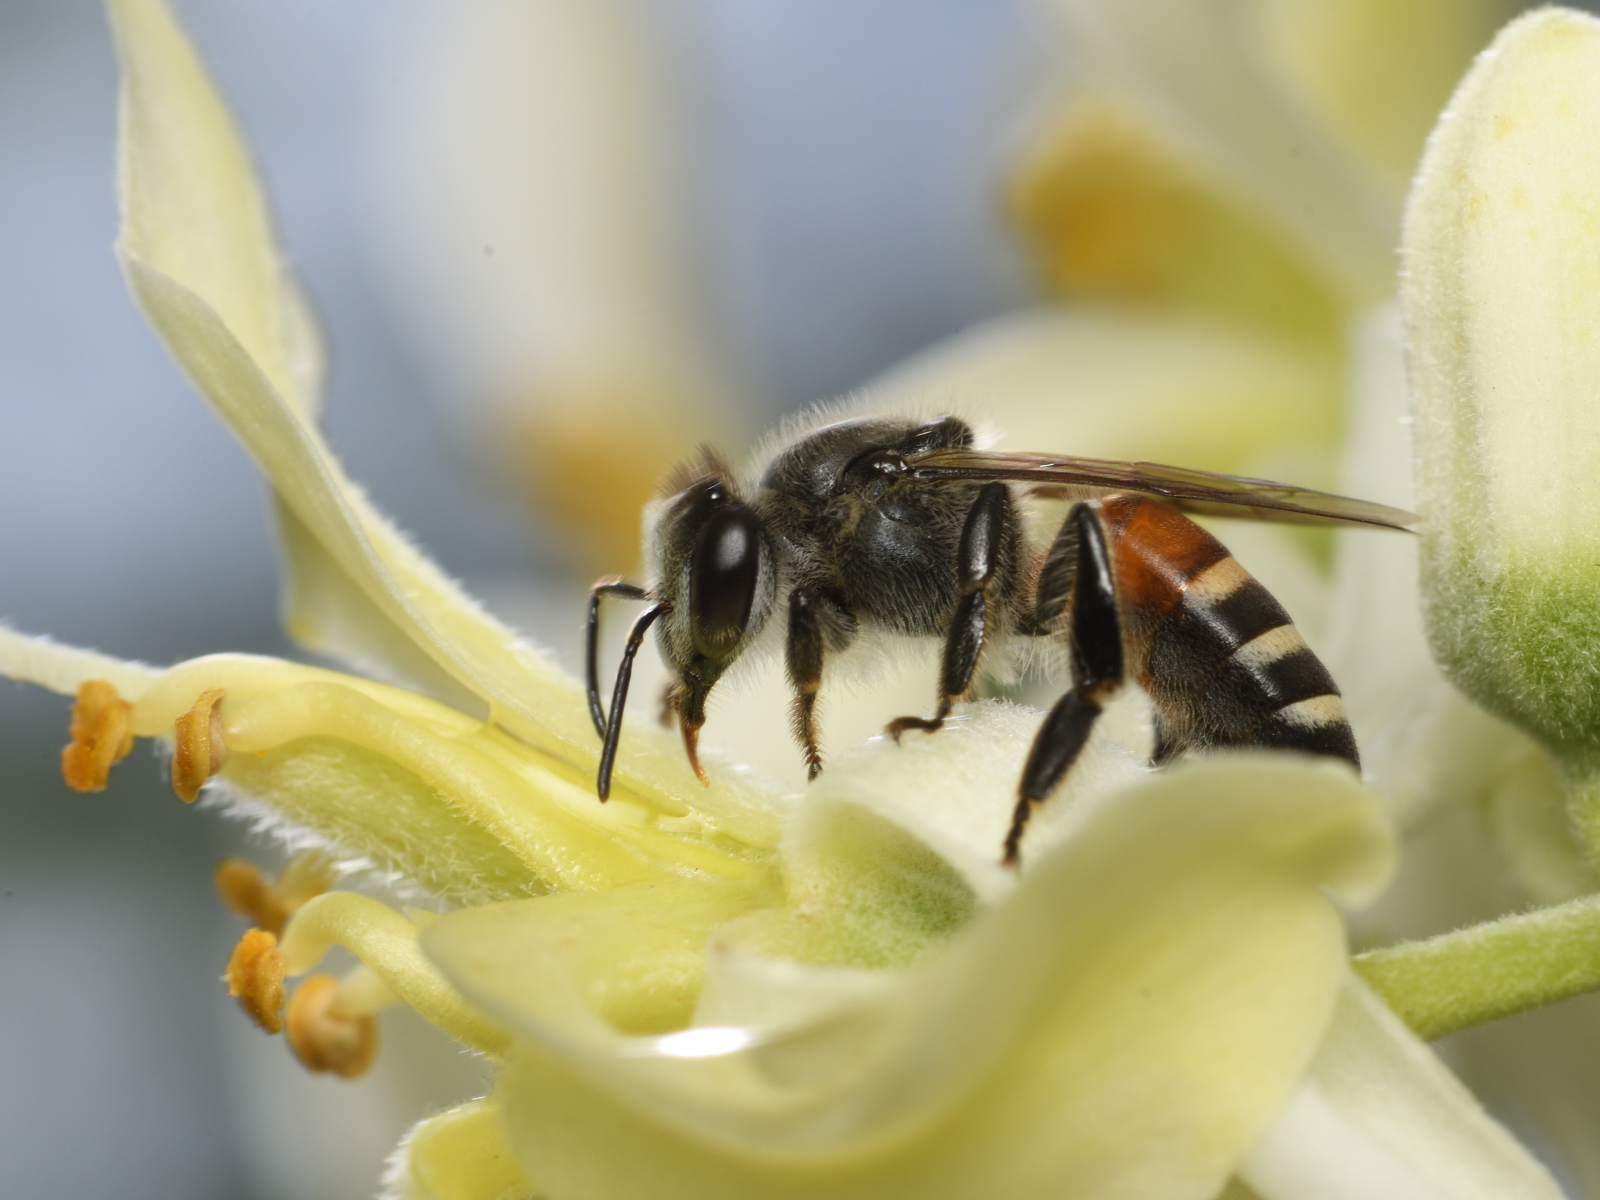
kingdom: Animalia
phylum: Arthropoda
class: Insecta
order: Hymenoptera
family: Apidae
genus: Apis
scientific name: Apis florea
